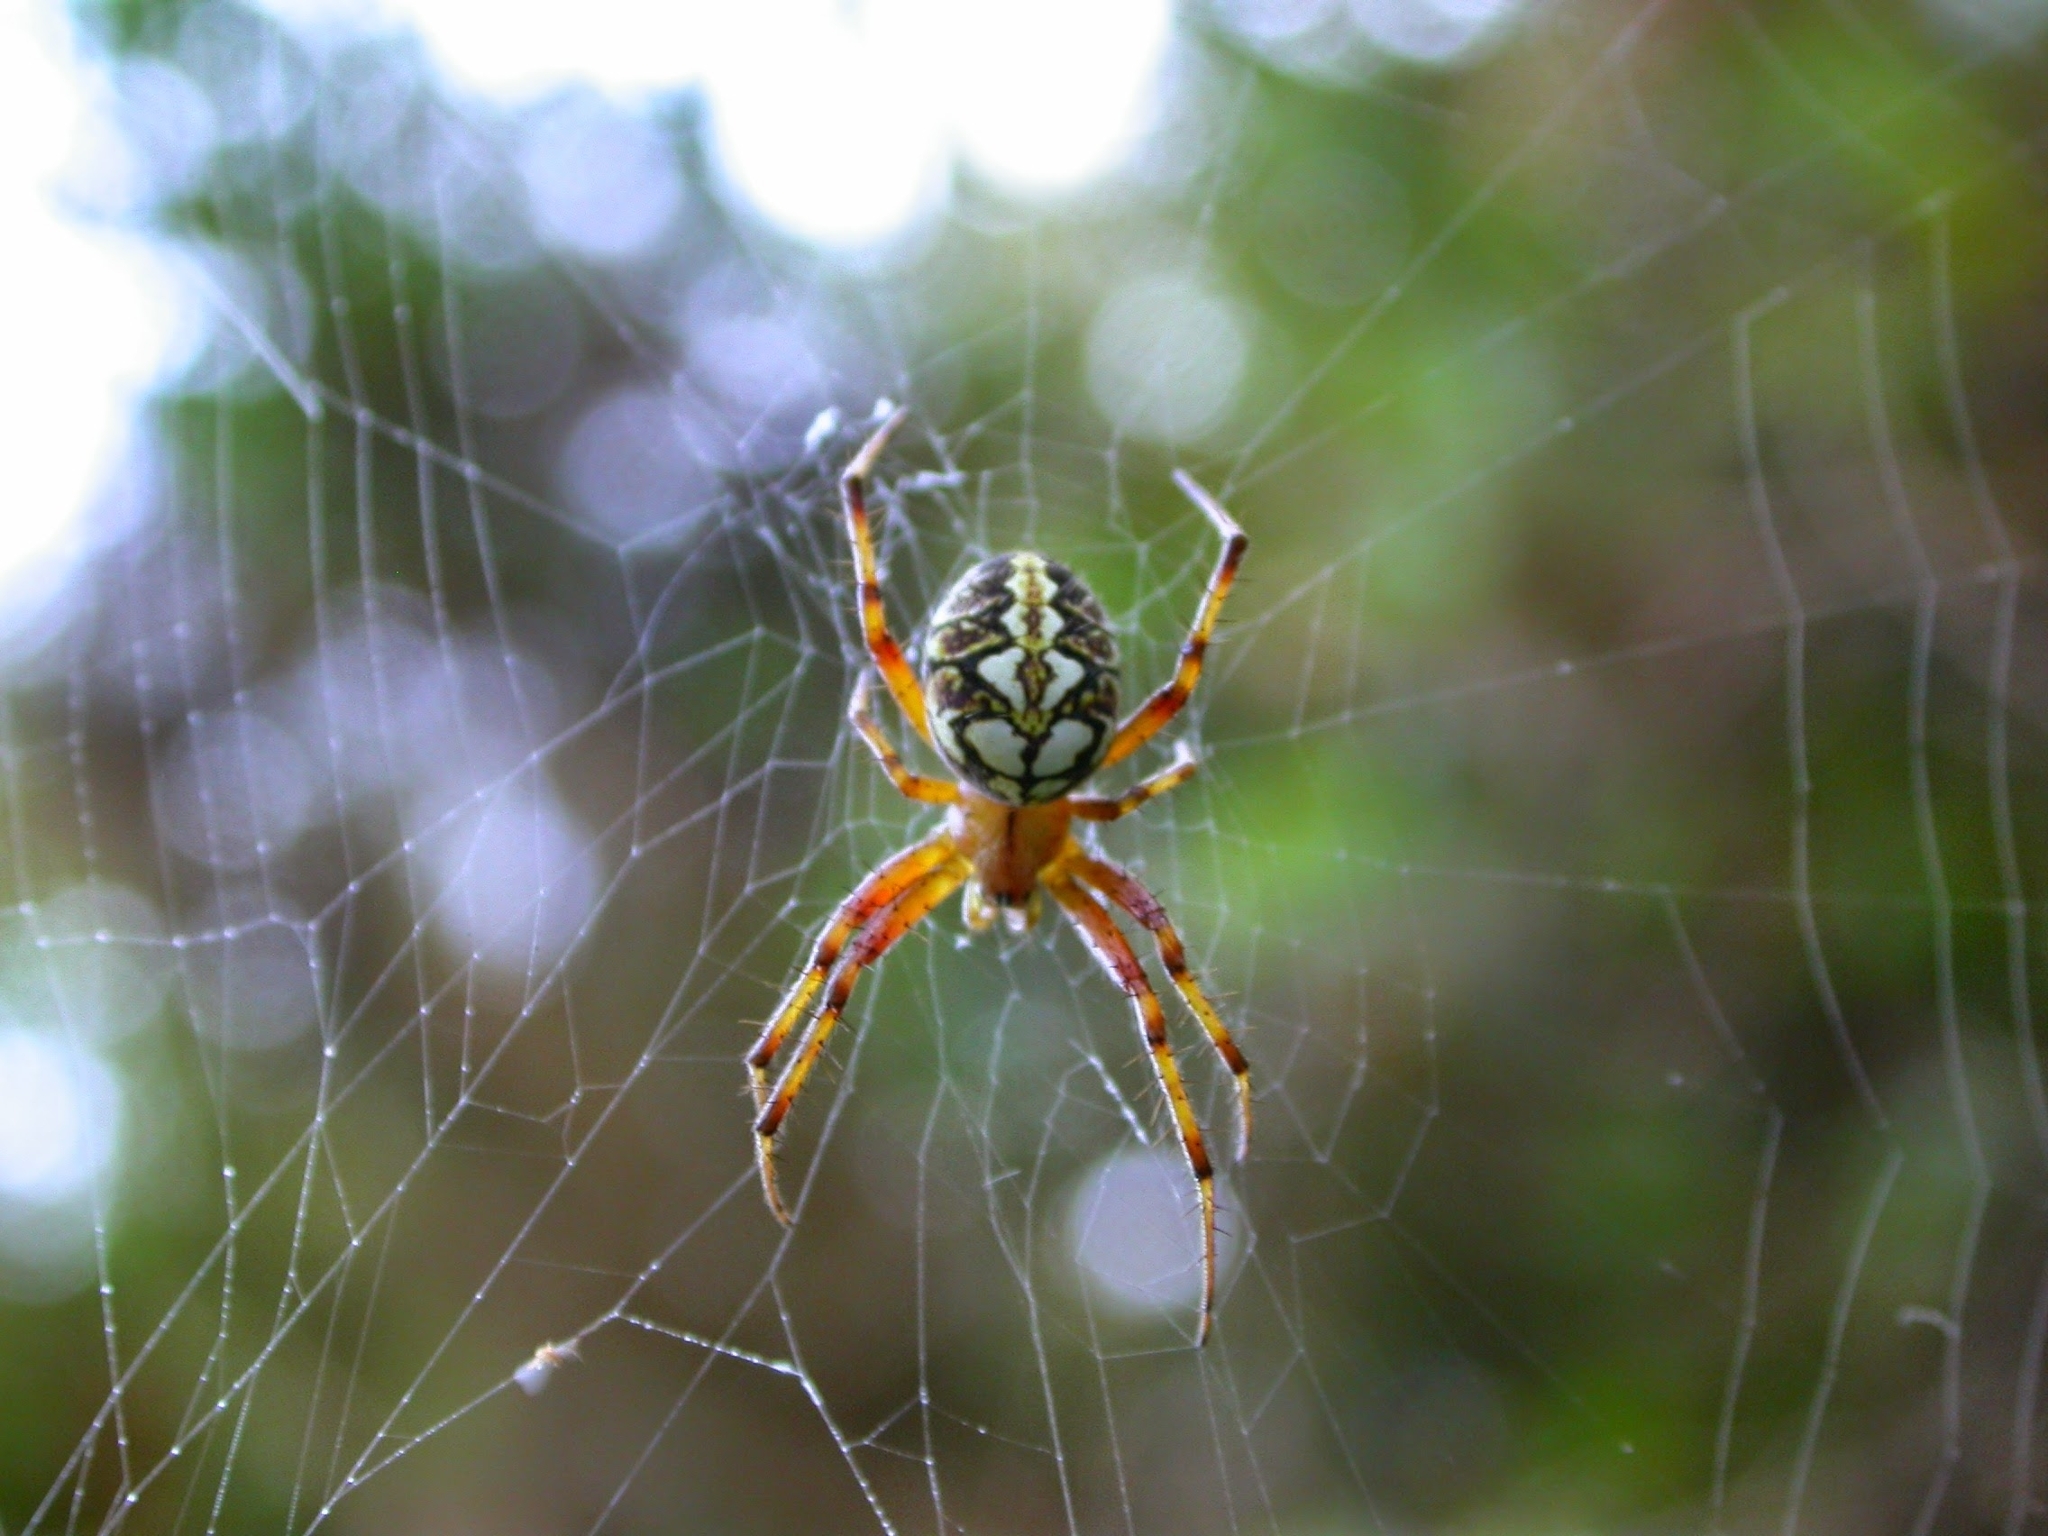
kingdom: Animalia
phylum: Arthropoda
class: Arachnida
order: Araneae
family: Araneidae
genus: Neoscona
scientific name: Neoscona adianta
